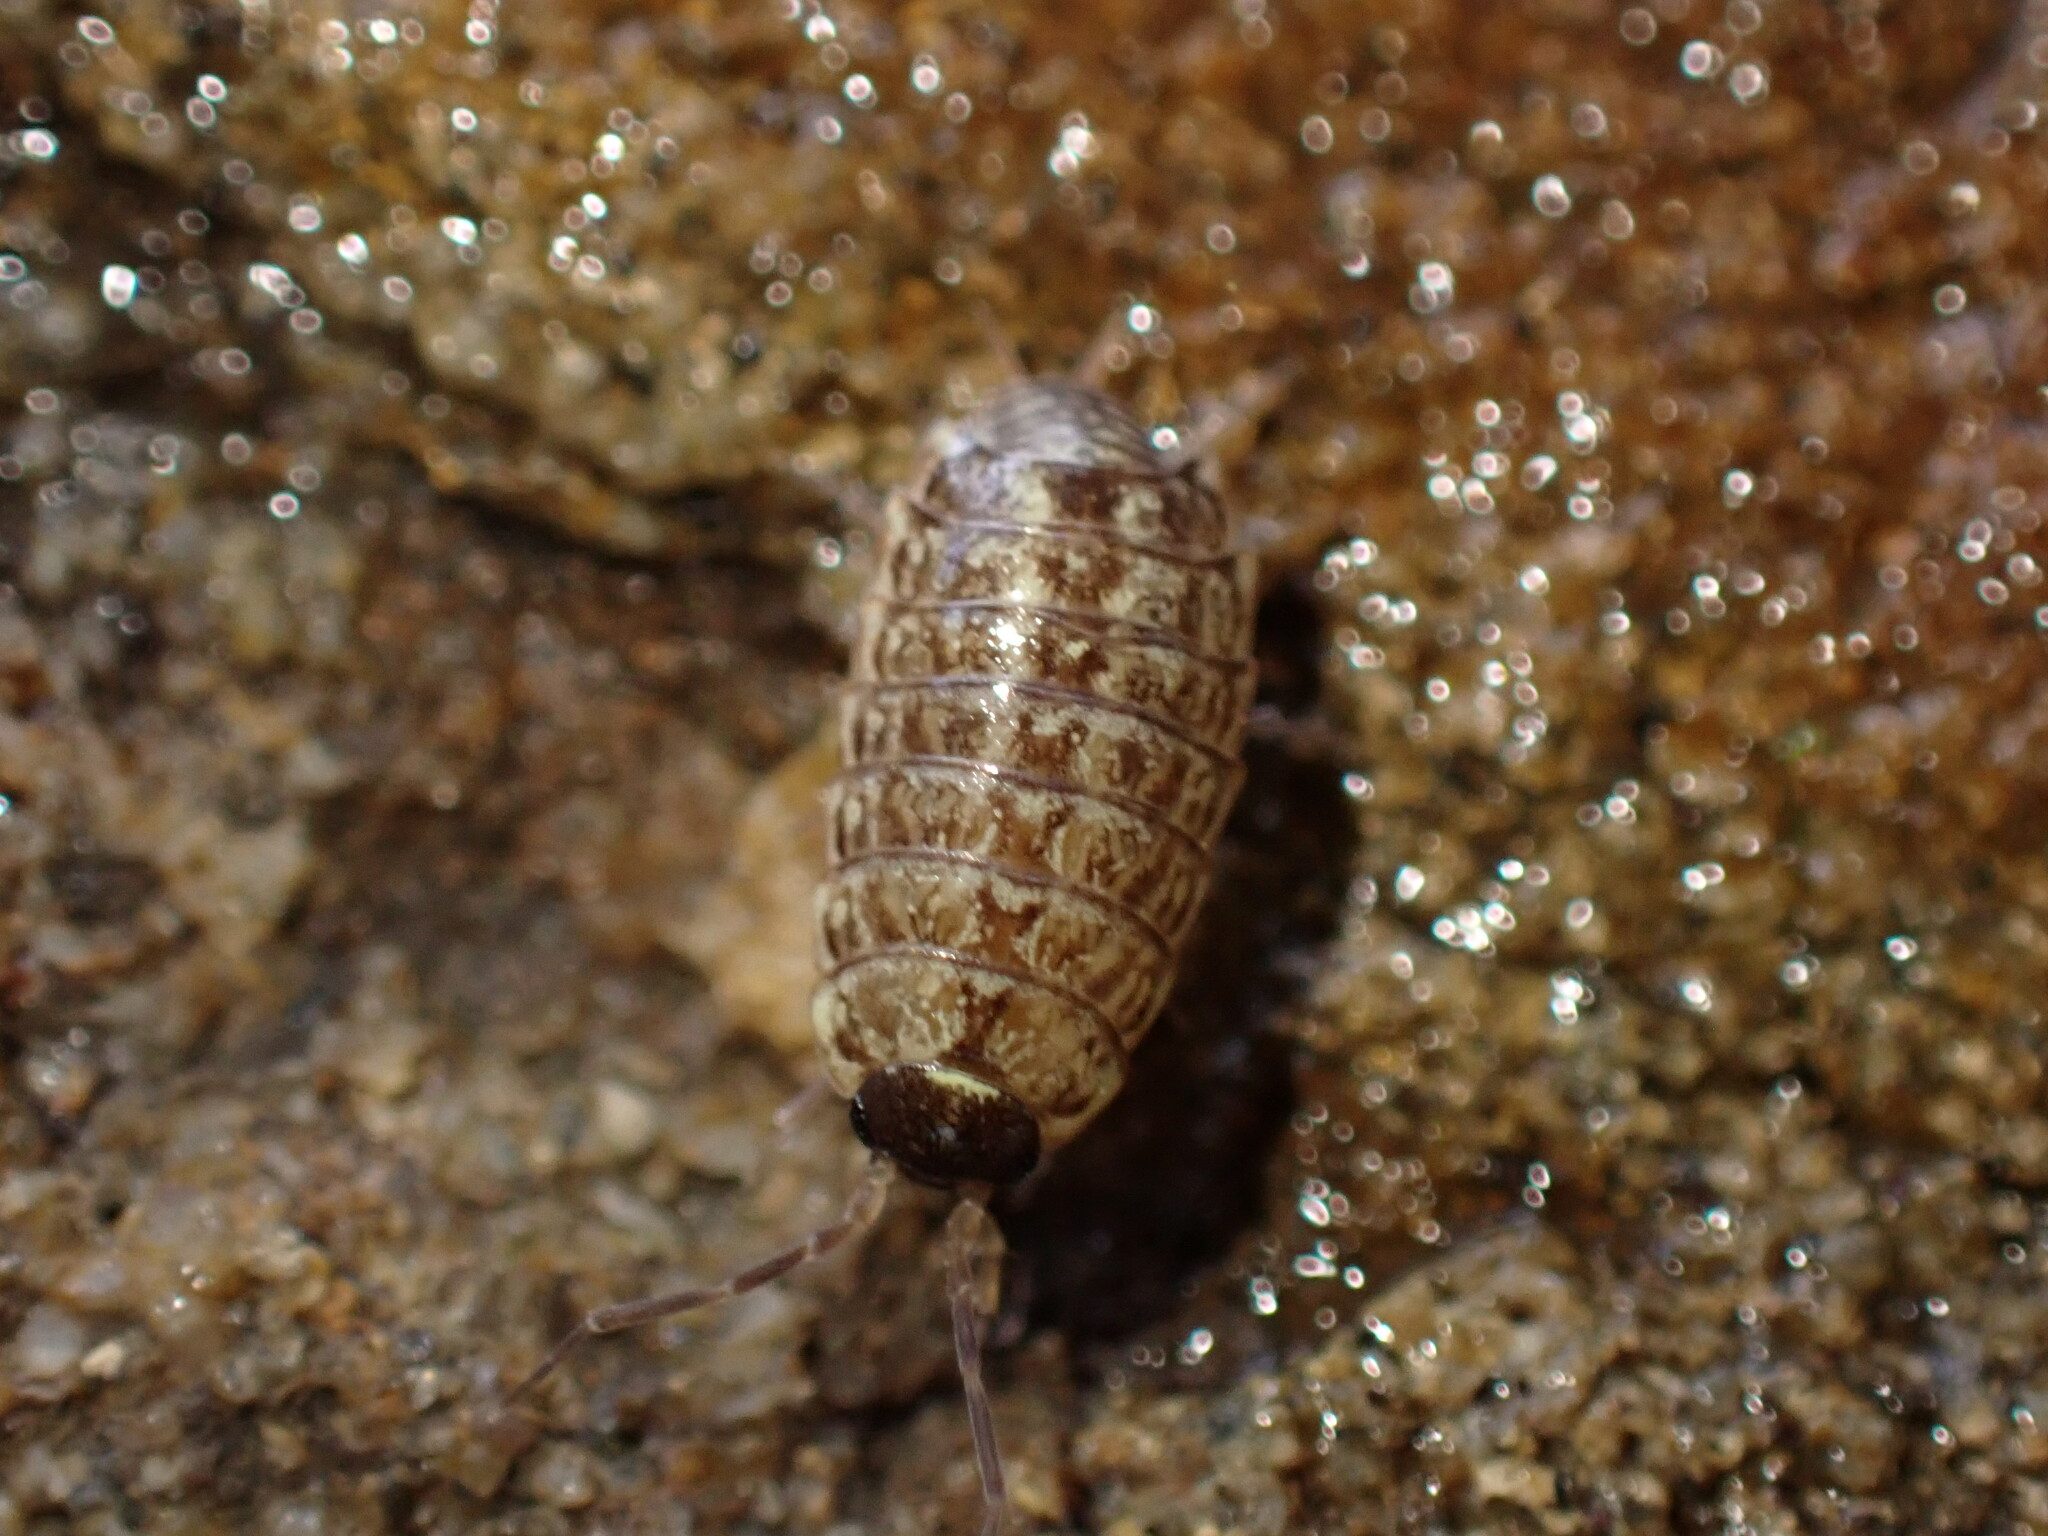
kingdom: Animalia
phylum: Arthropoda
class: Malacostraca
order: Isopoda
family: Philosciidae
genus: Philoscia
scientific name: Philoscia muscorum
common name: Common striped woodlouse
